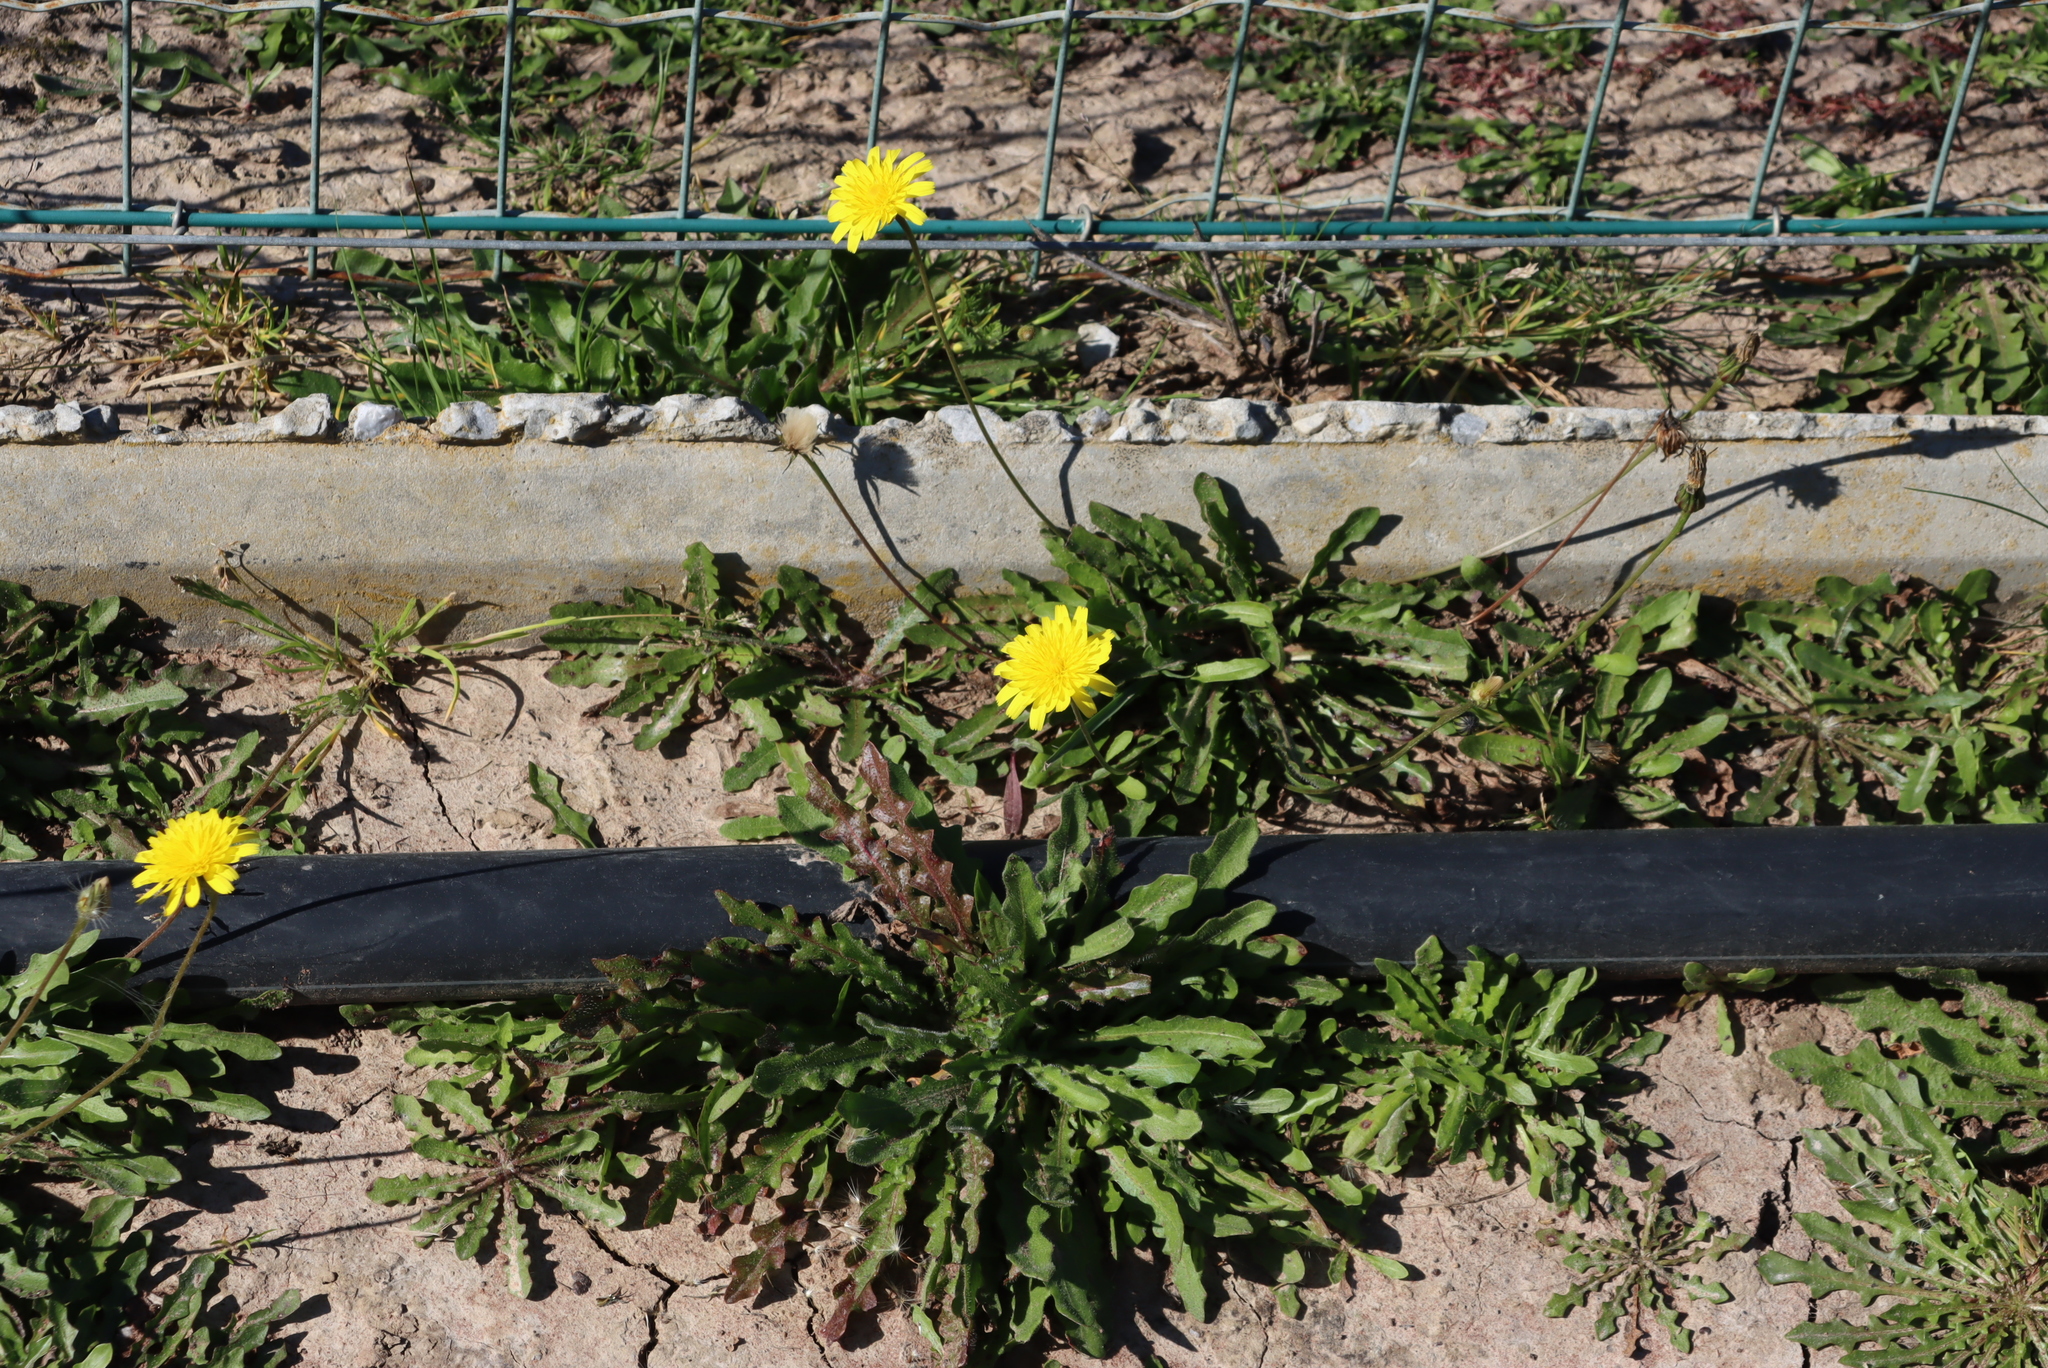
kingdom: Plantae
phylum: Tracheophyta
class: Magnoliopsida
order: Asterales
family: Asteraceae
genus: Hypochaeris
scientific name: Hypochaeris radicata
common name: Flatweed
